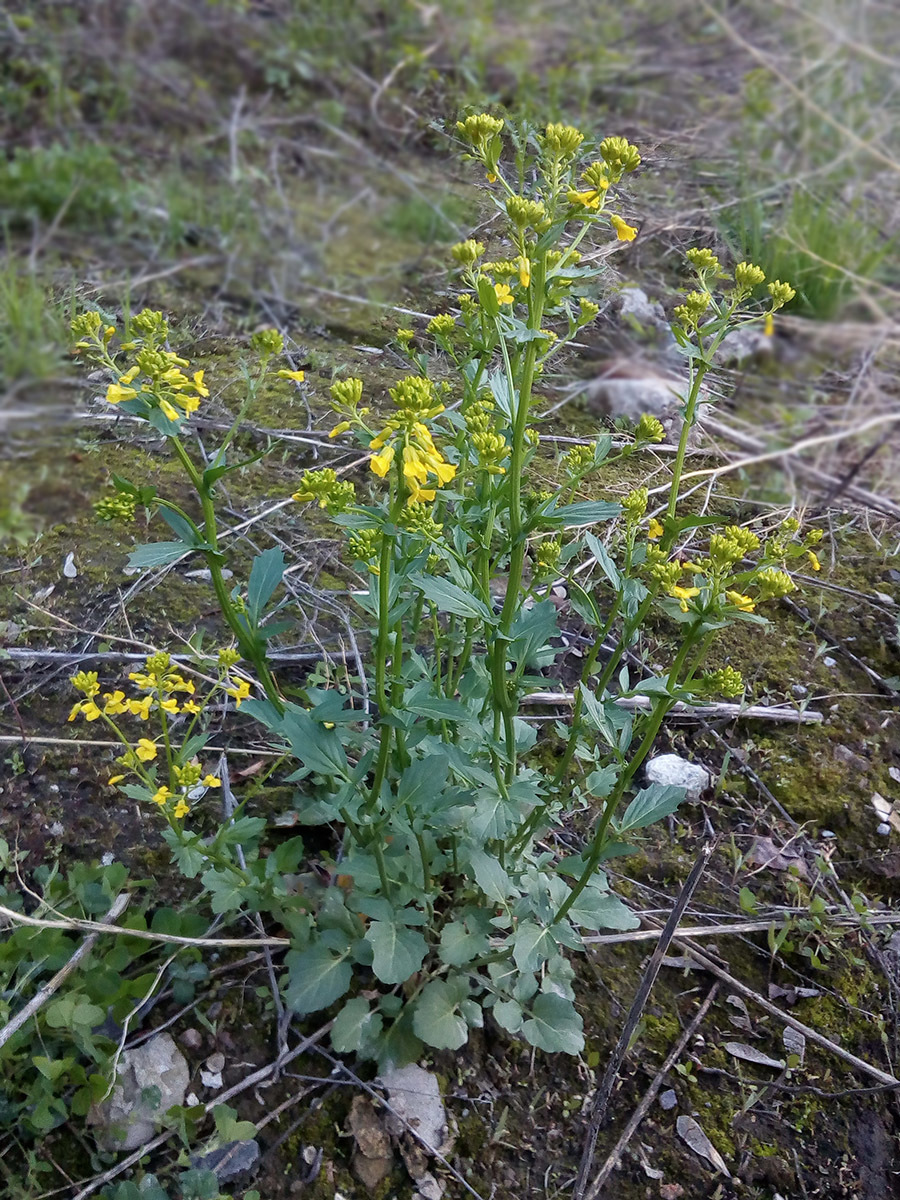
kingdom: Plantae
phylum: Tracheophyta
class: Magnoliopsida
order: Brassicales
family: Brassicaceae
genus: Barbarea
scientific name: Barbarea vulgaris
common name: Cressy-greens
